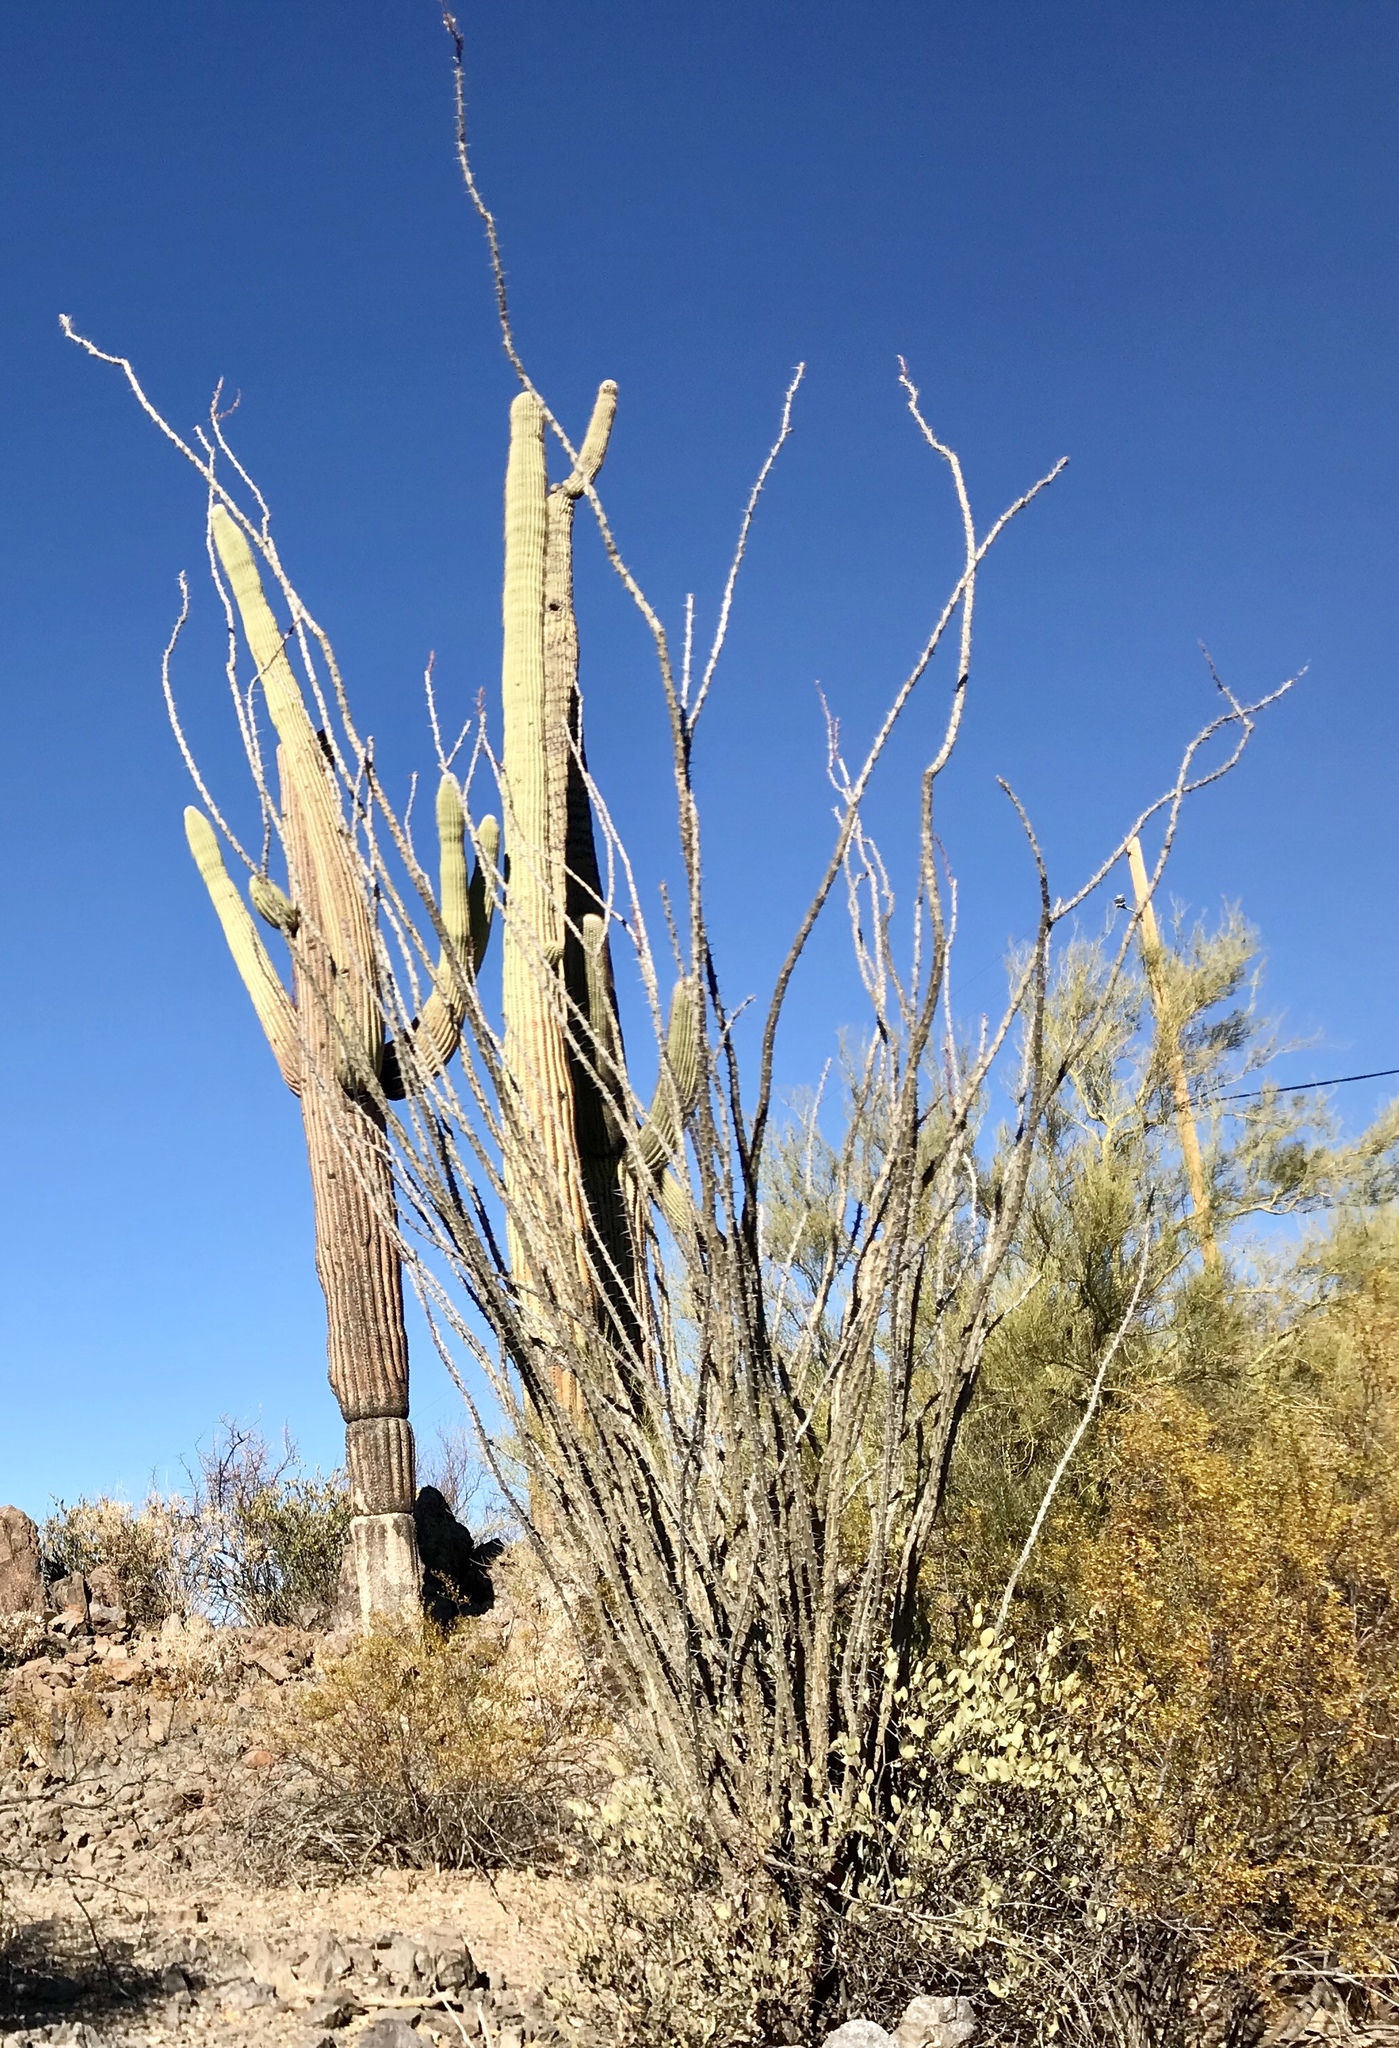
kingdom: Plantae
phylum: Tracheophyta
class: Magnoliopsida
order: Ericales
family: Fouquieriaceae
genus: Fouquieria
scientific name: Fouquieria splendens
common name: Vine-cactus
